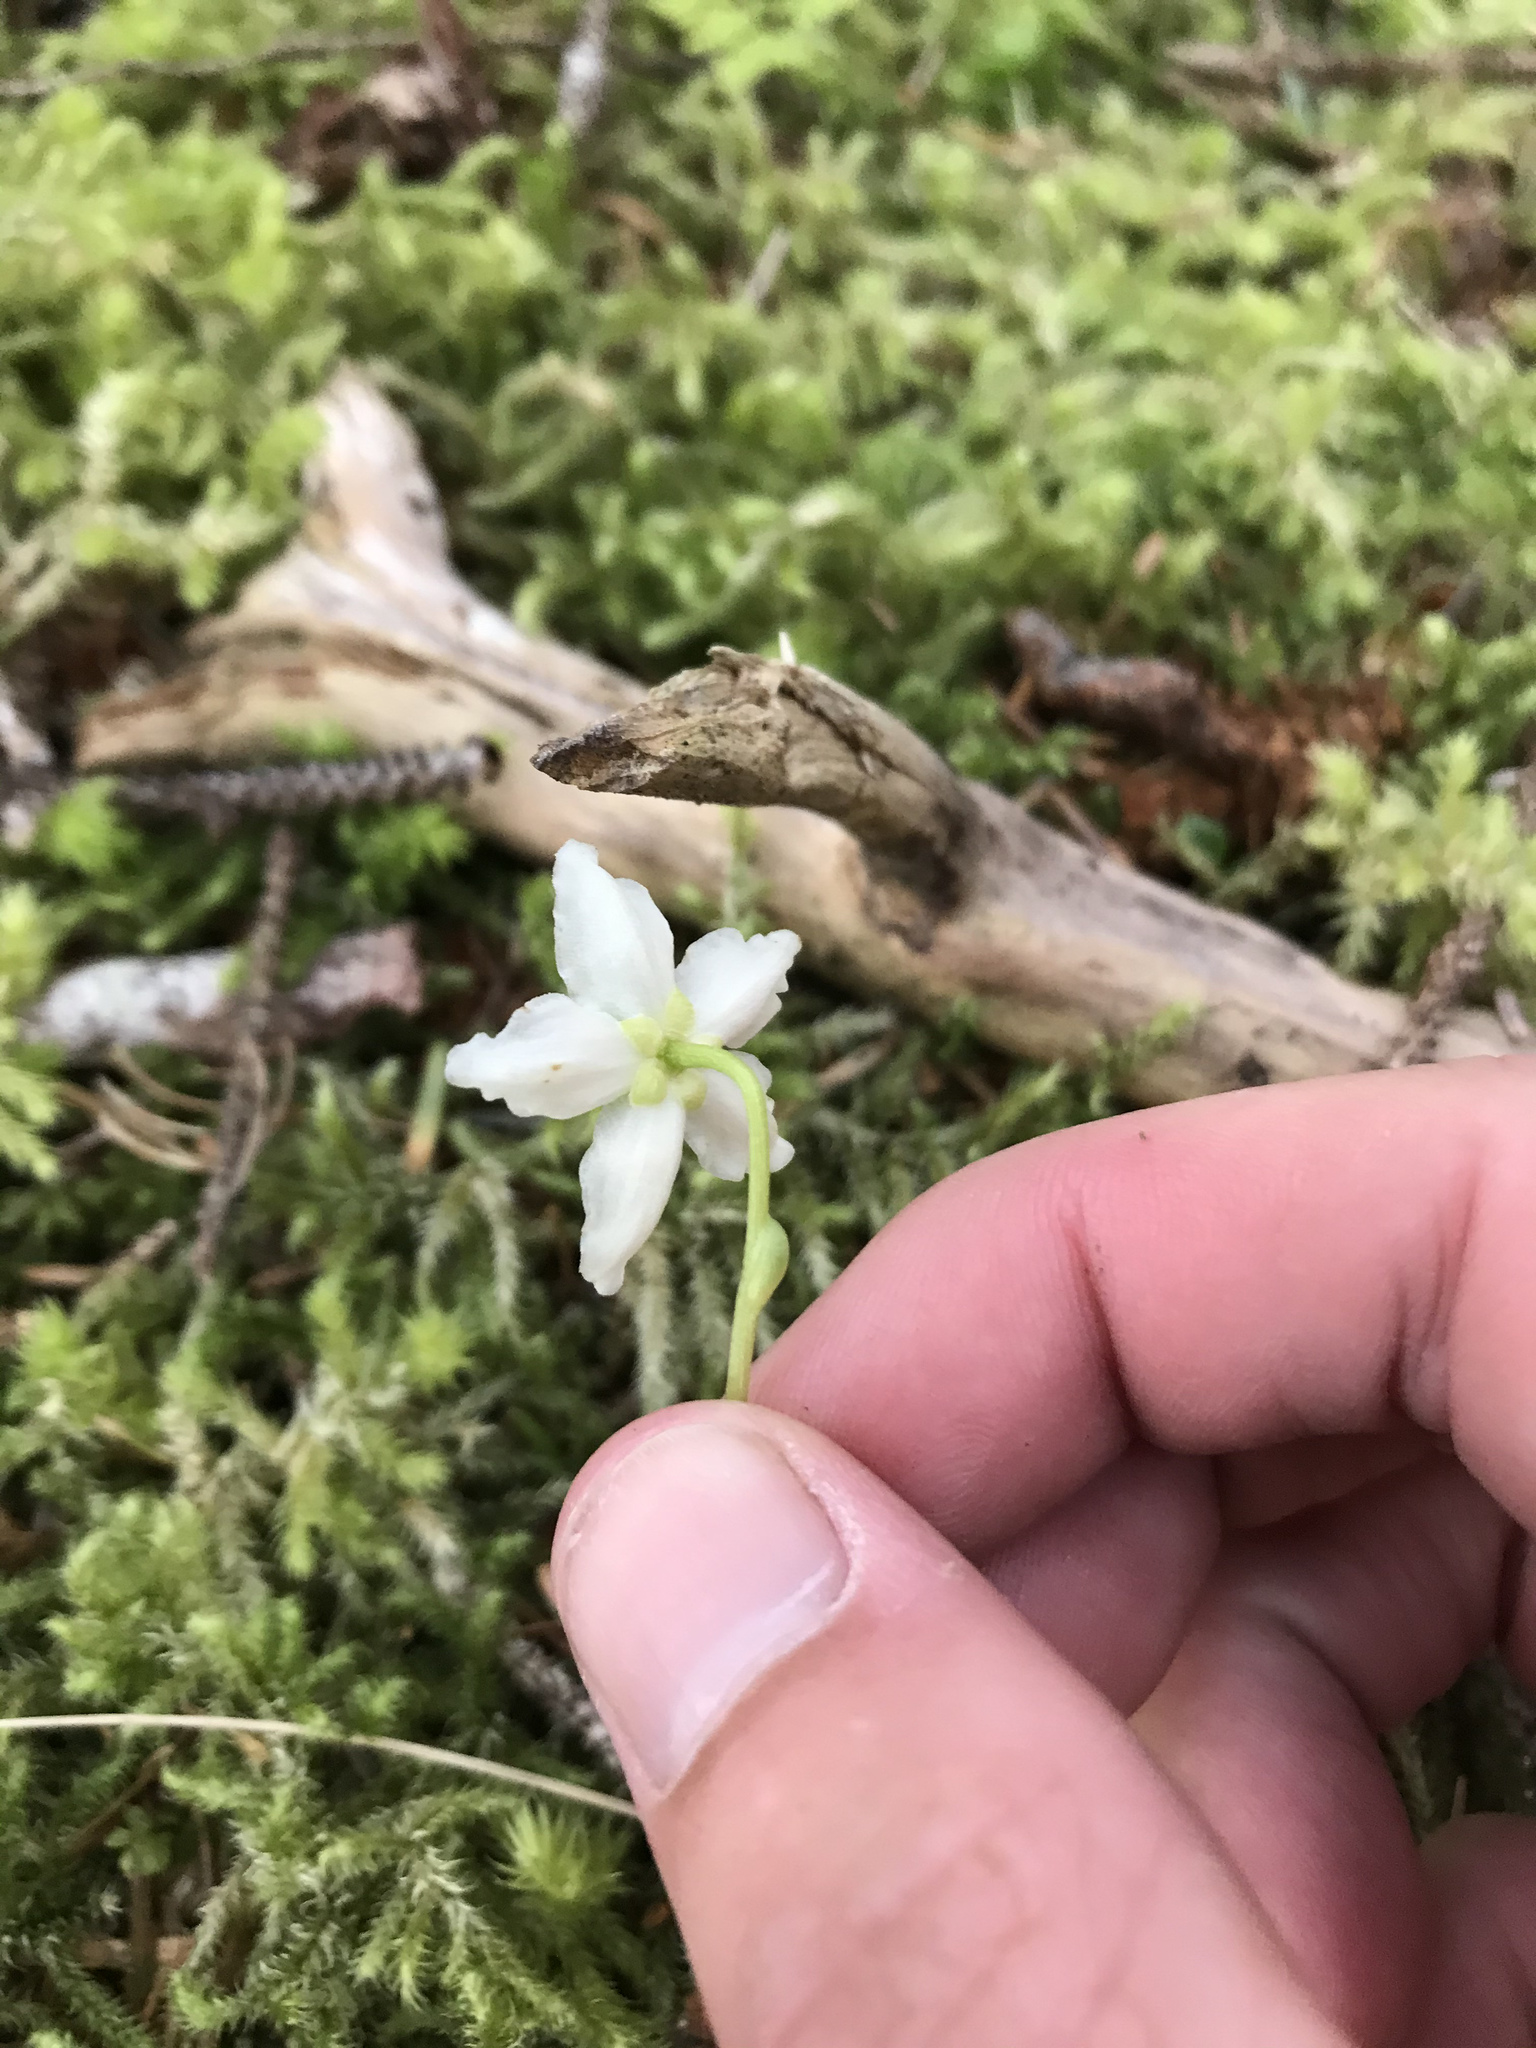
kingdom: Plantae
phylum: Tracheophyta
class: Magnoliopsida
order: Ericales
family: Ericaceae
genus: Moneses
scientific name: Moneses uniflora
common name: One-flowered wintergreen
